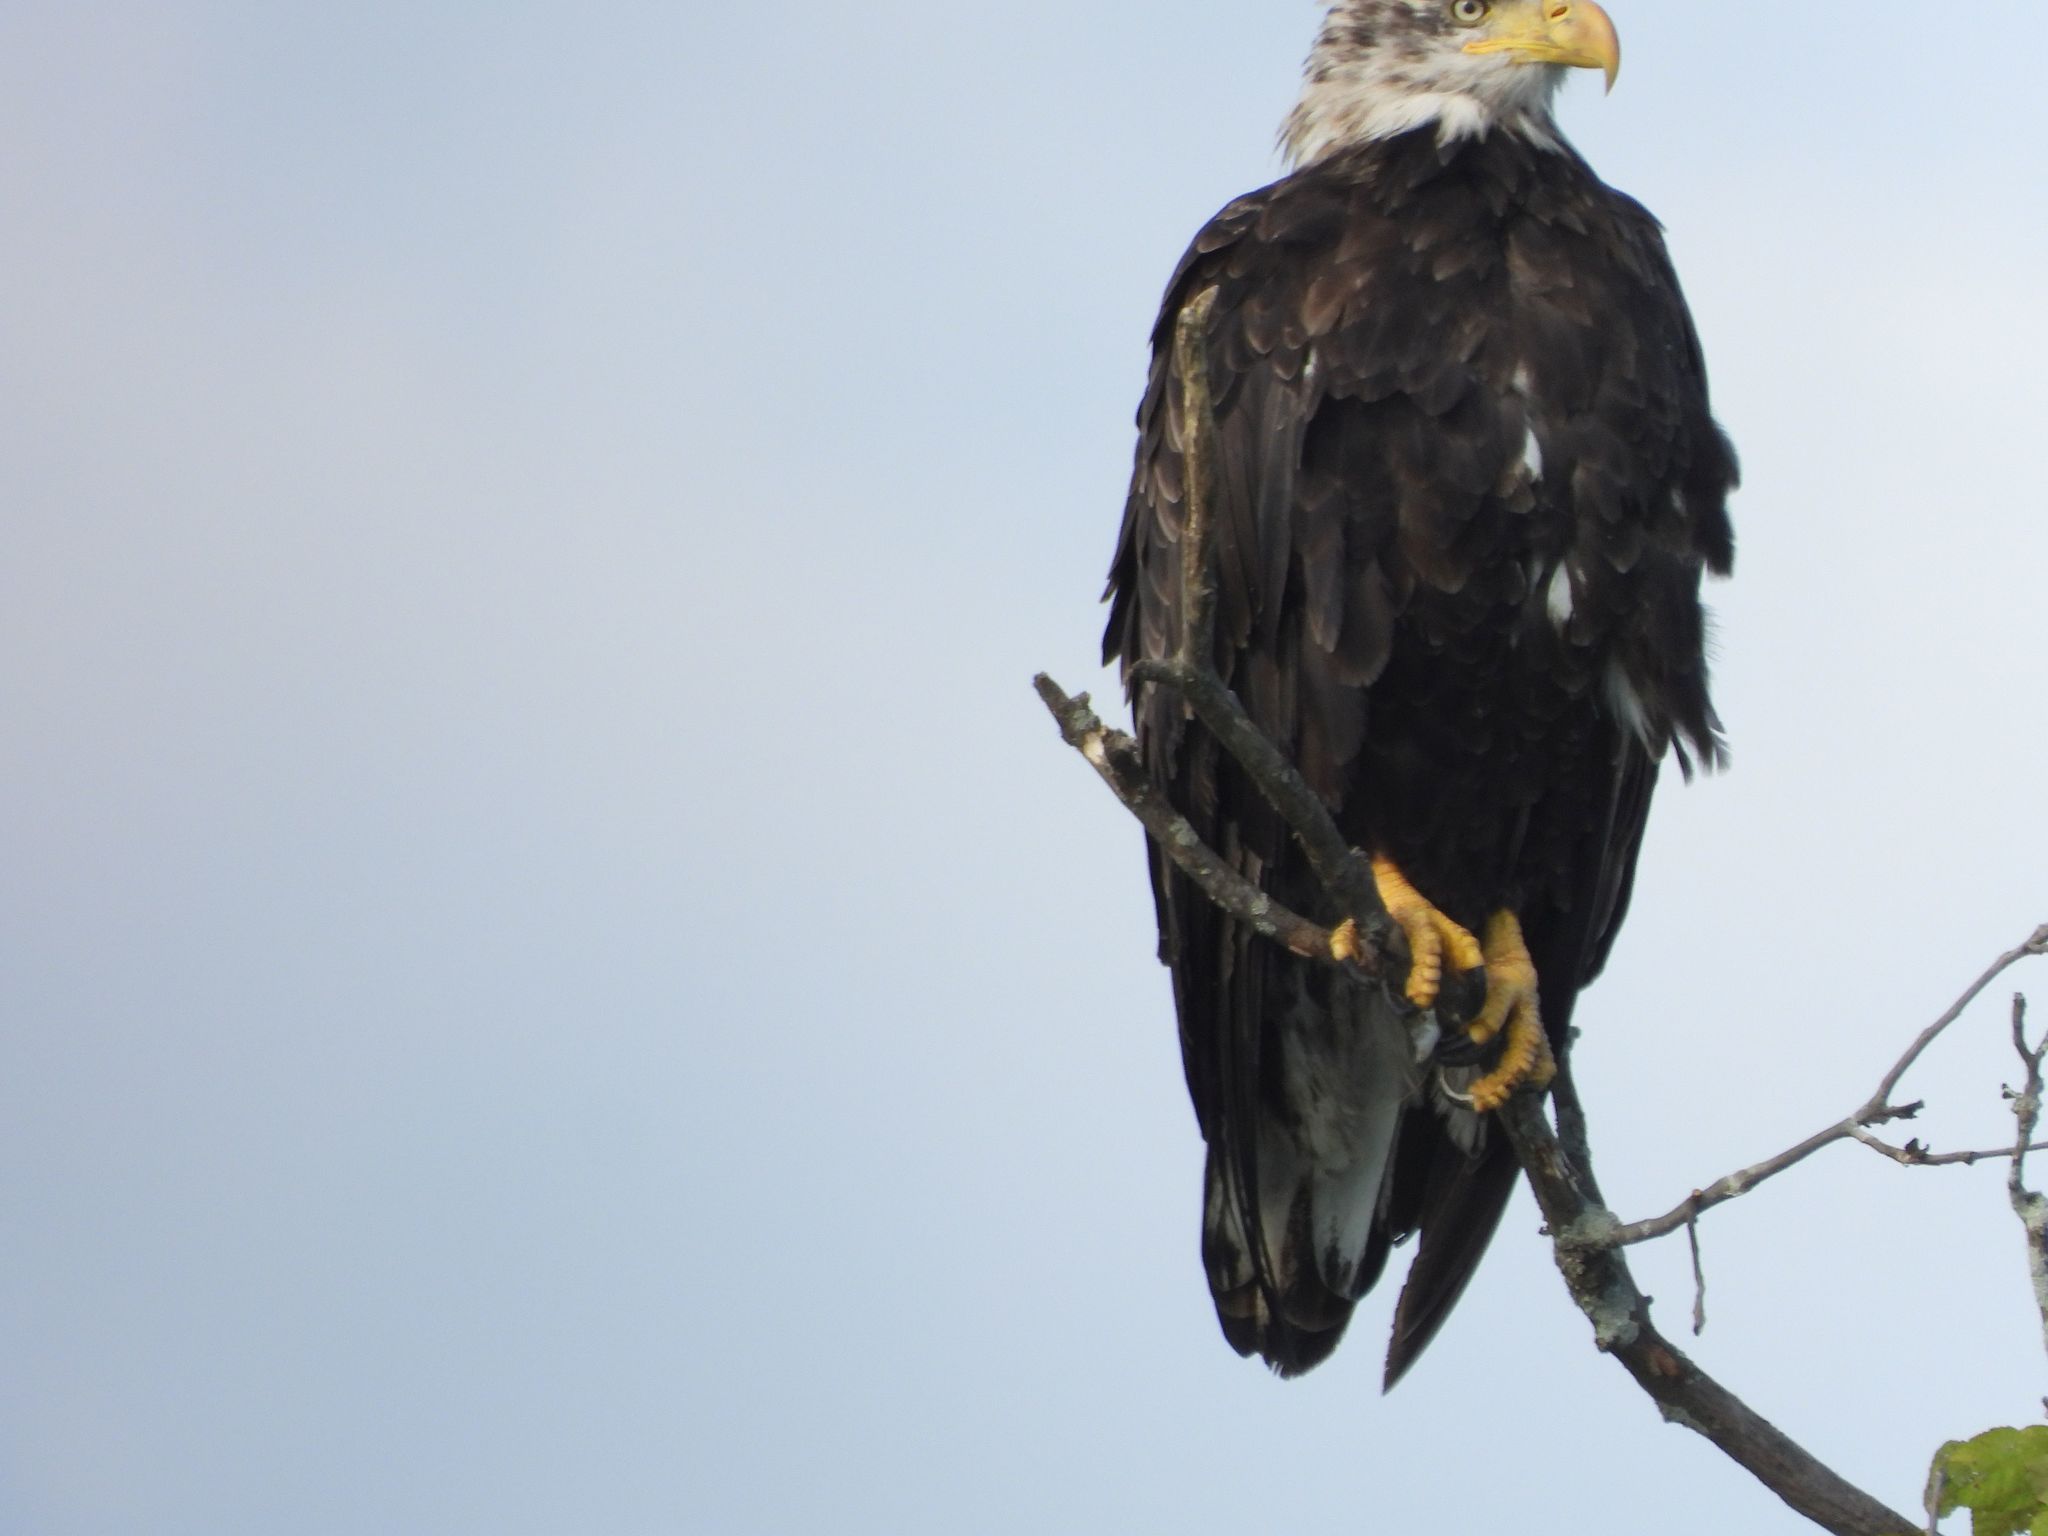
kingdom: Animalia
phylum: Chordata
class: Aves
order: Accipitriformes
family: Accipitridae
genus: Haliaeetus
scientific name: Haliaeetus leucocephalus
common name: Bald eagle
